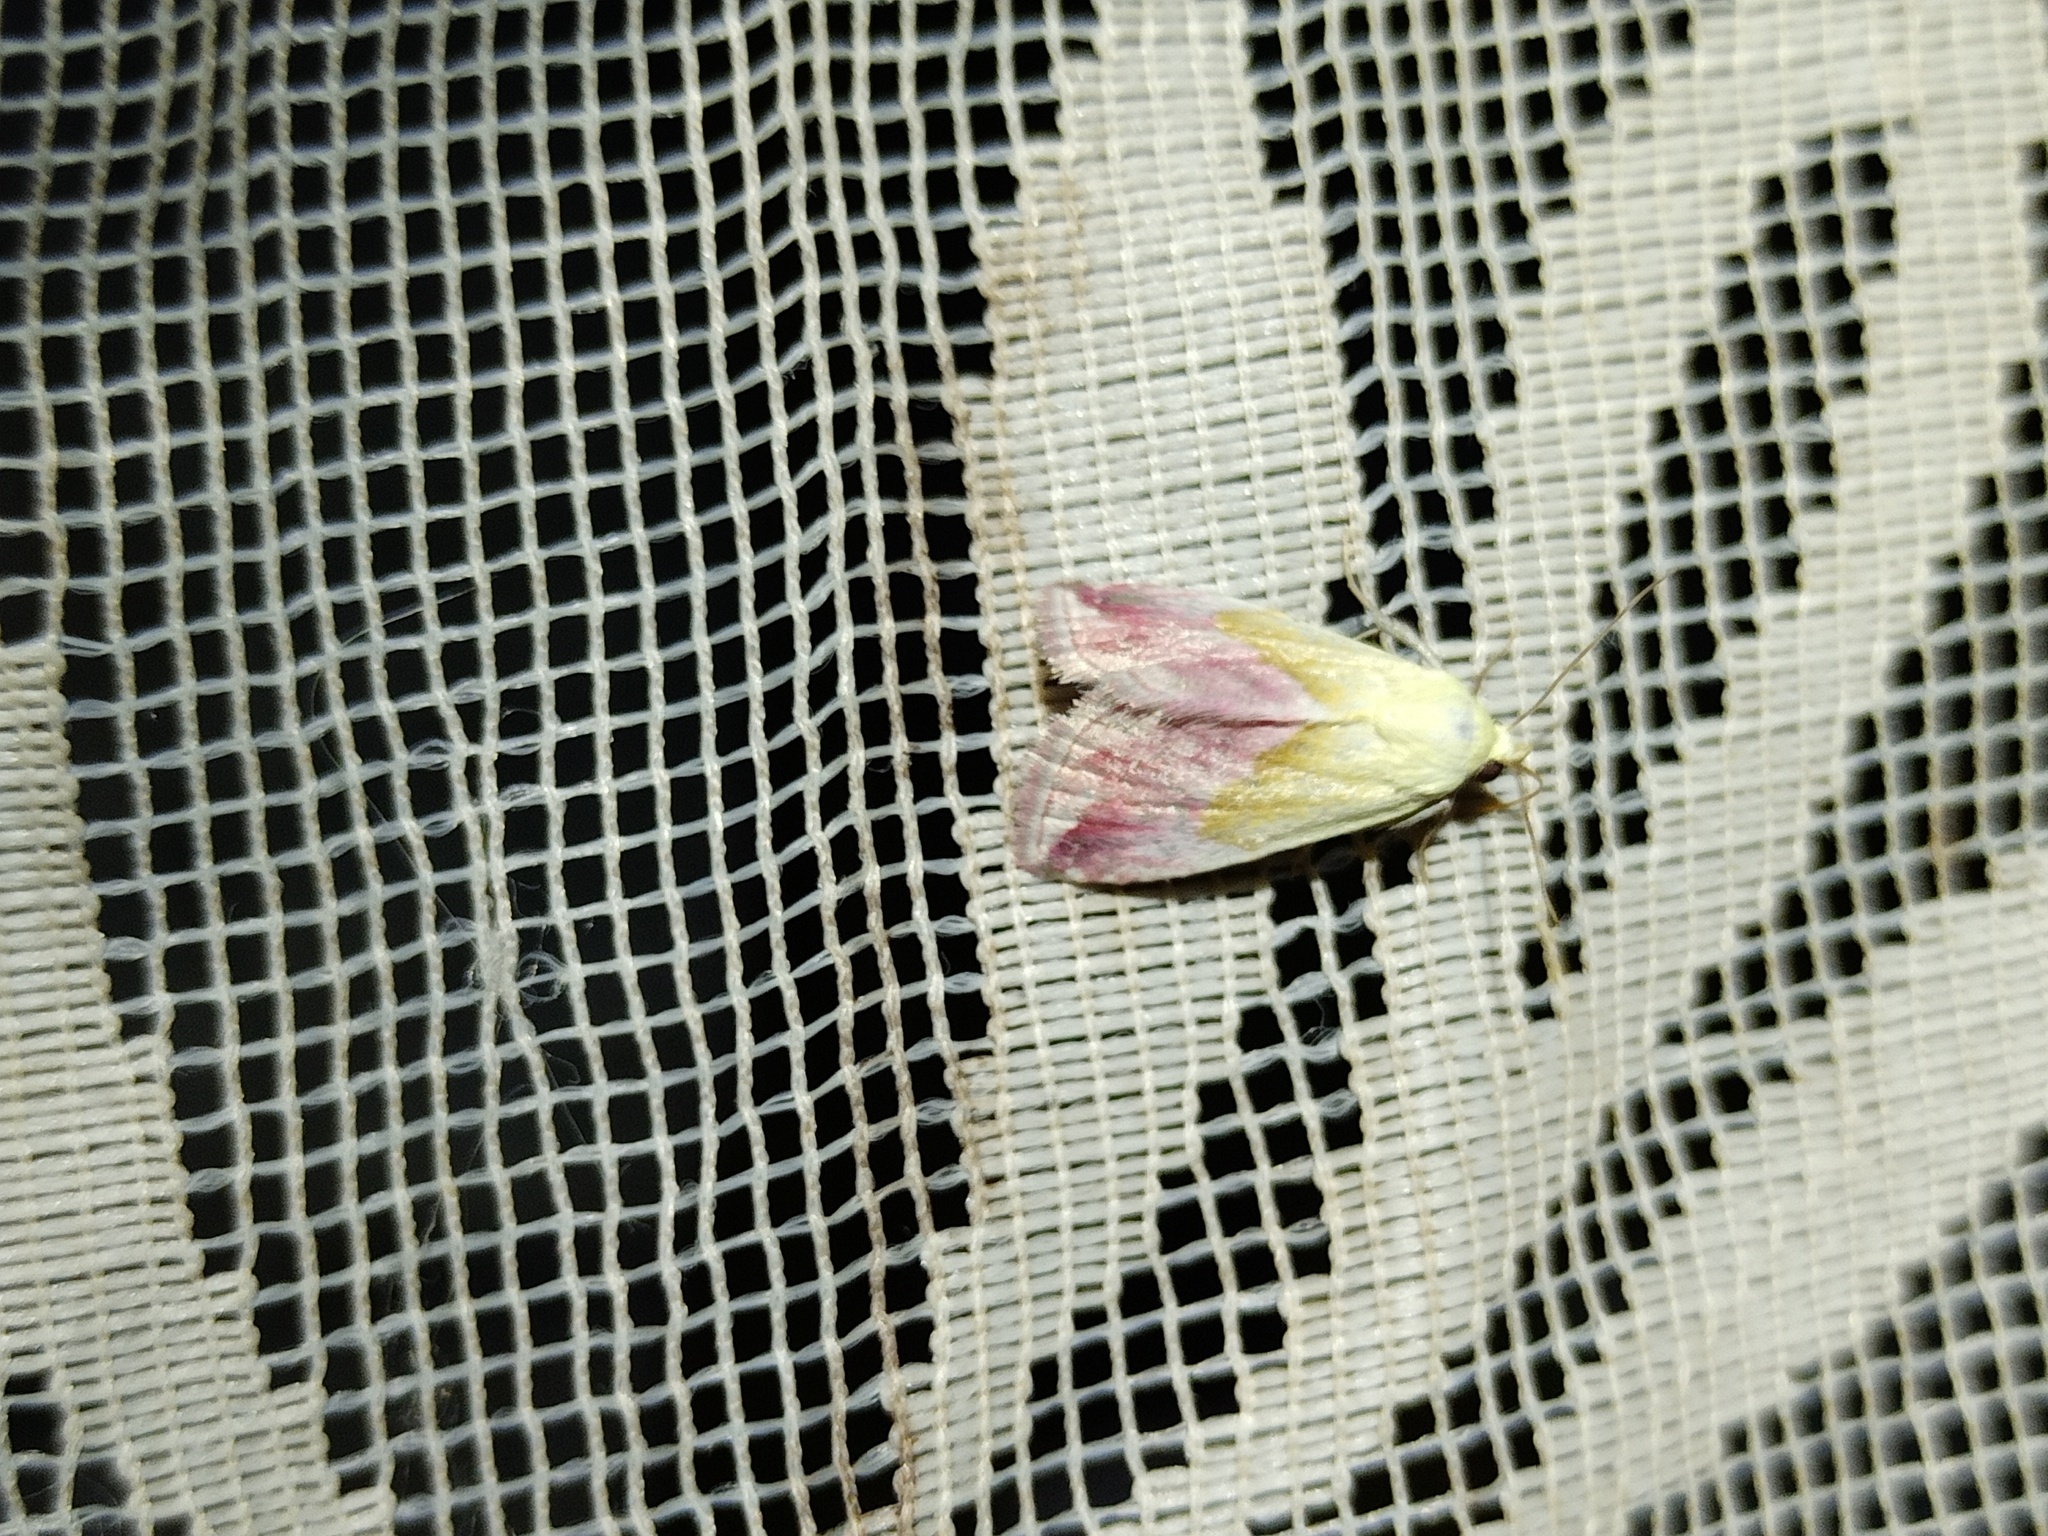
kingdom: Animalia
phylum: Arthropoda
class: Insecta
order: Lepidoptera
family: Noctuidae
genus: Eublemma
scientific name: Eublemma purpurina
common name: Beautiful marbled
